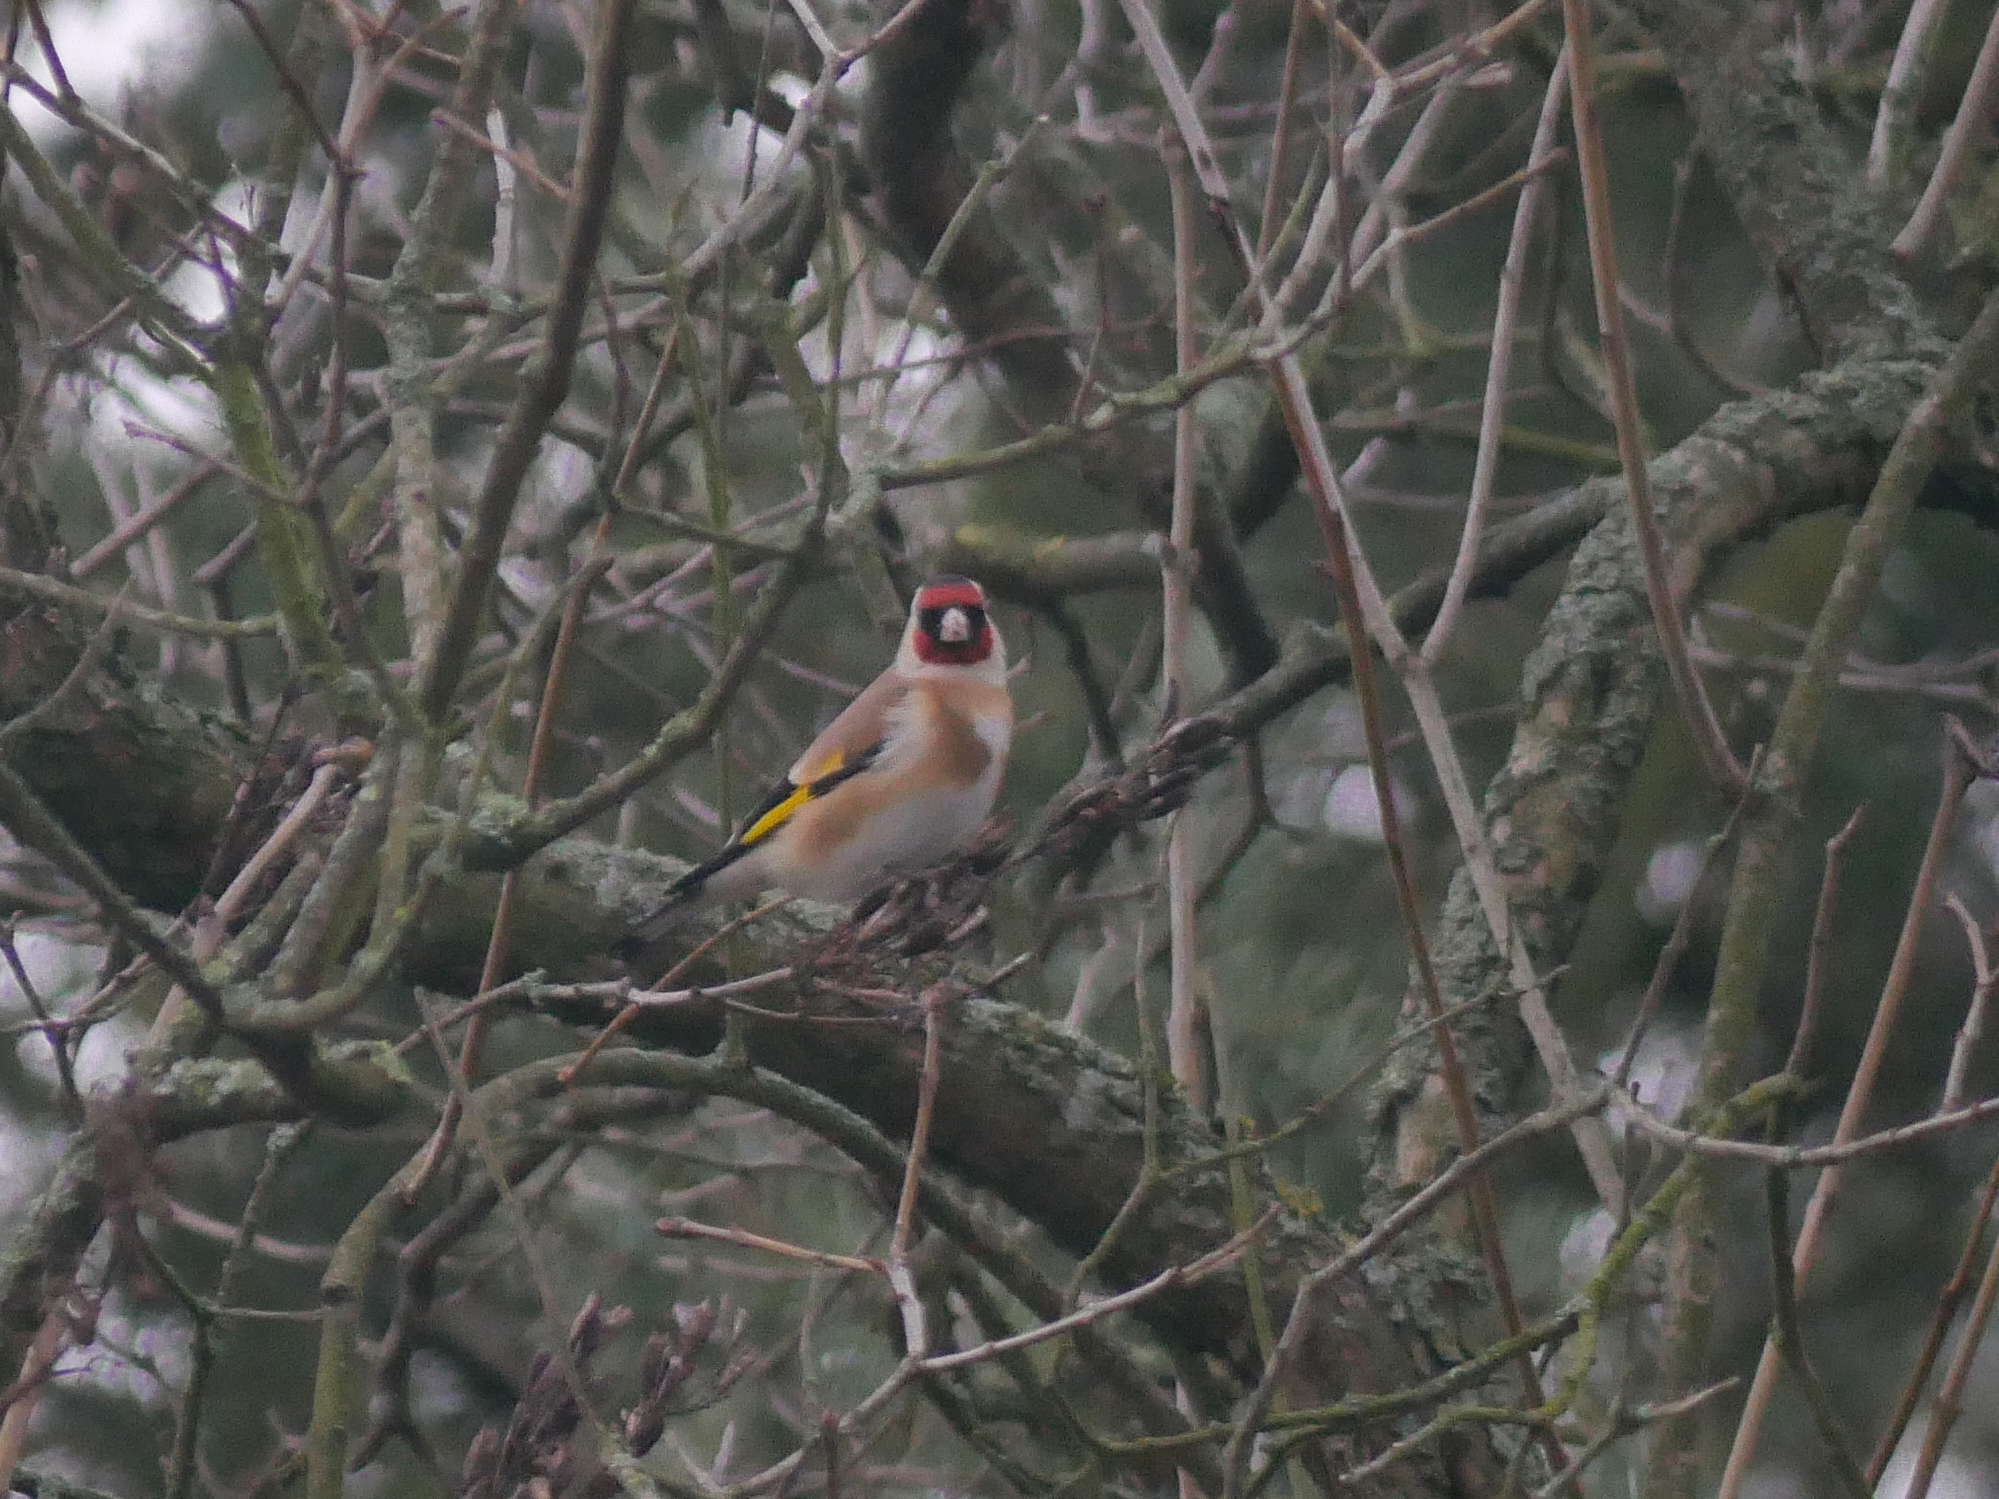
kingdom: Animalia
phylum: Chordata
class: Aves
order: Passeriformes
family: Fringillidae
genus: Carduelis
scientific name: Carduelis carduelis
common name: European goldfinch
